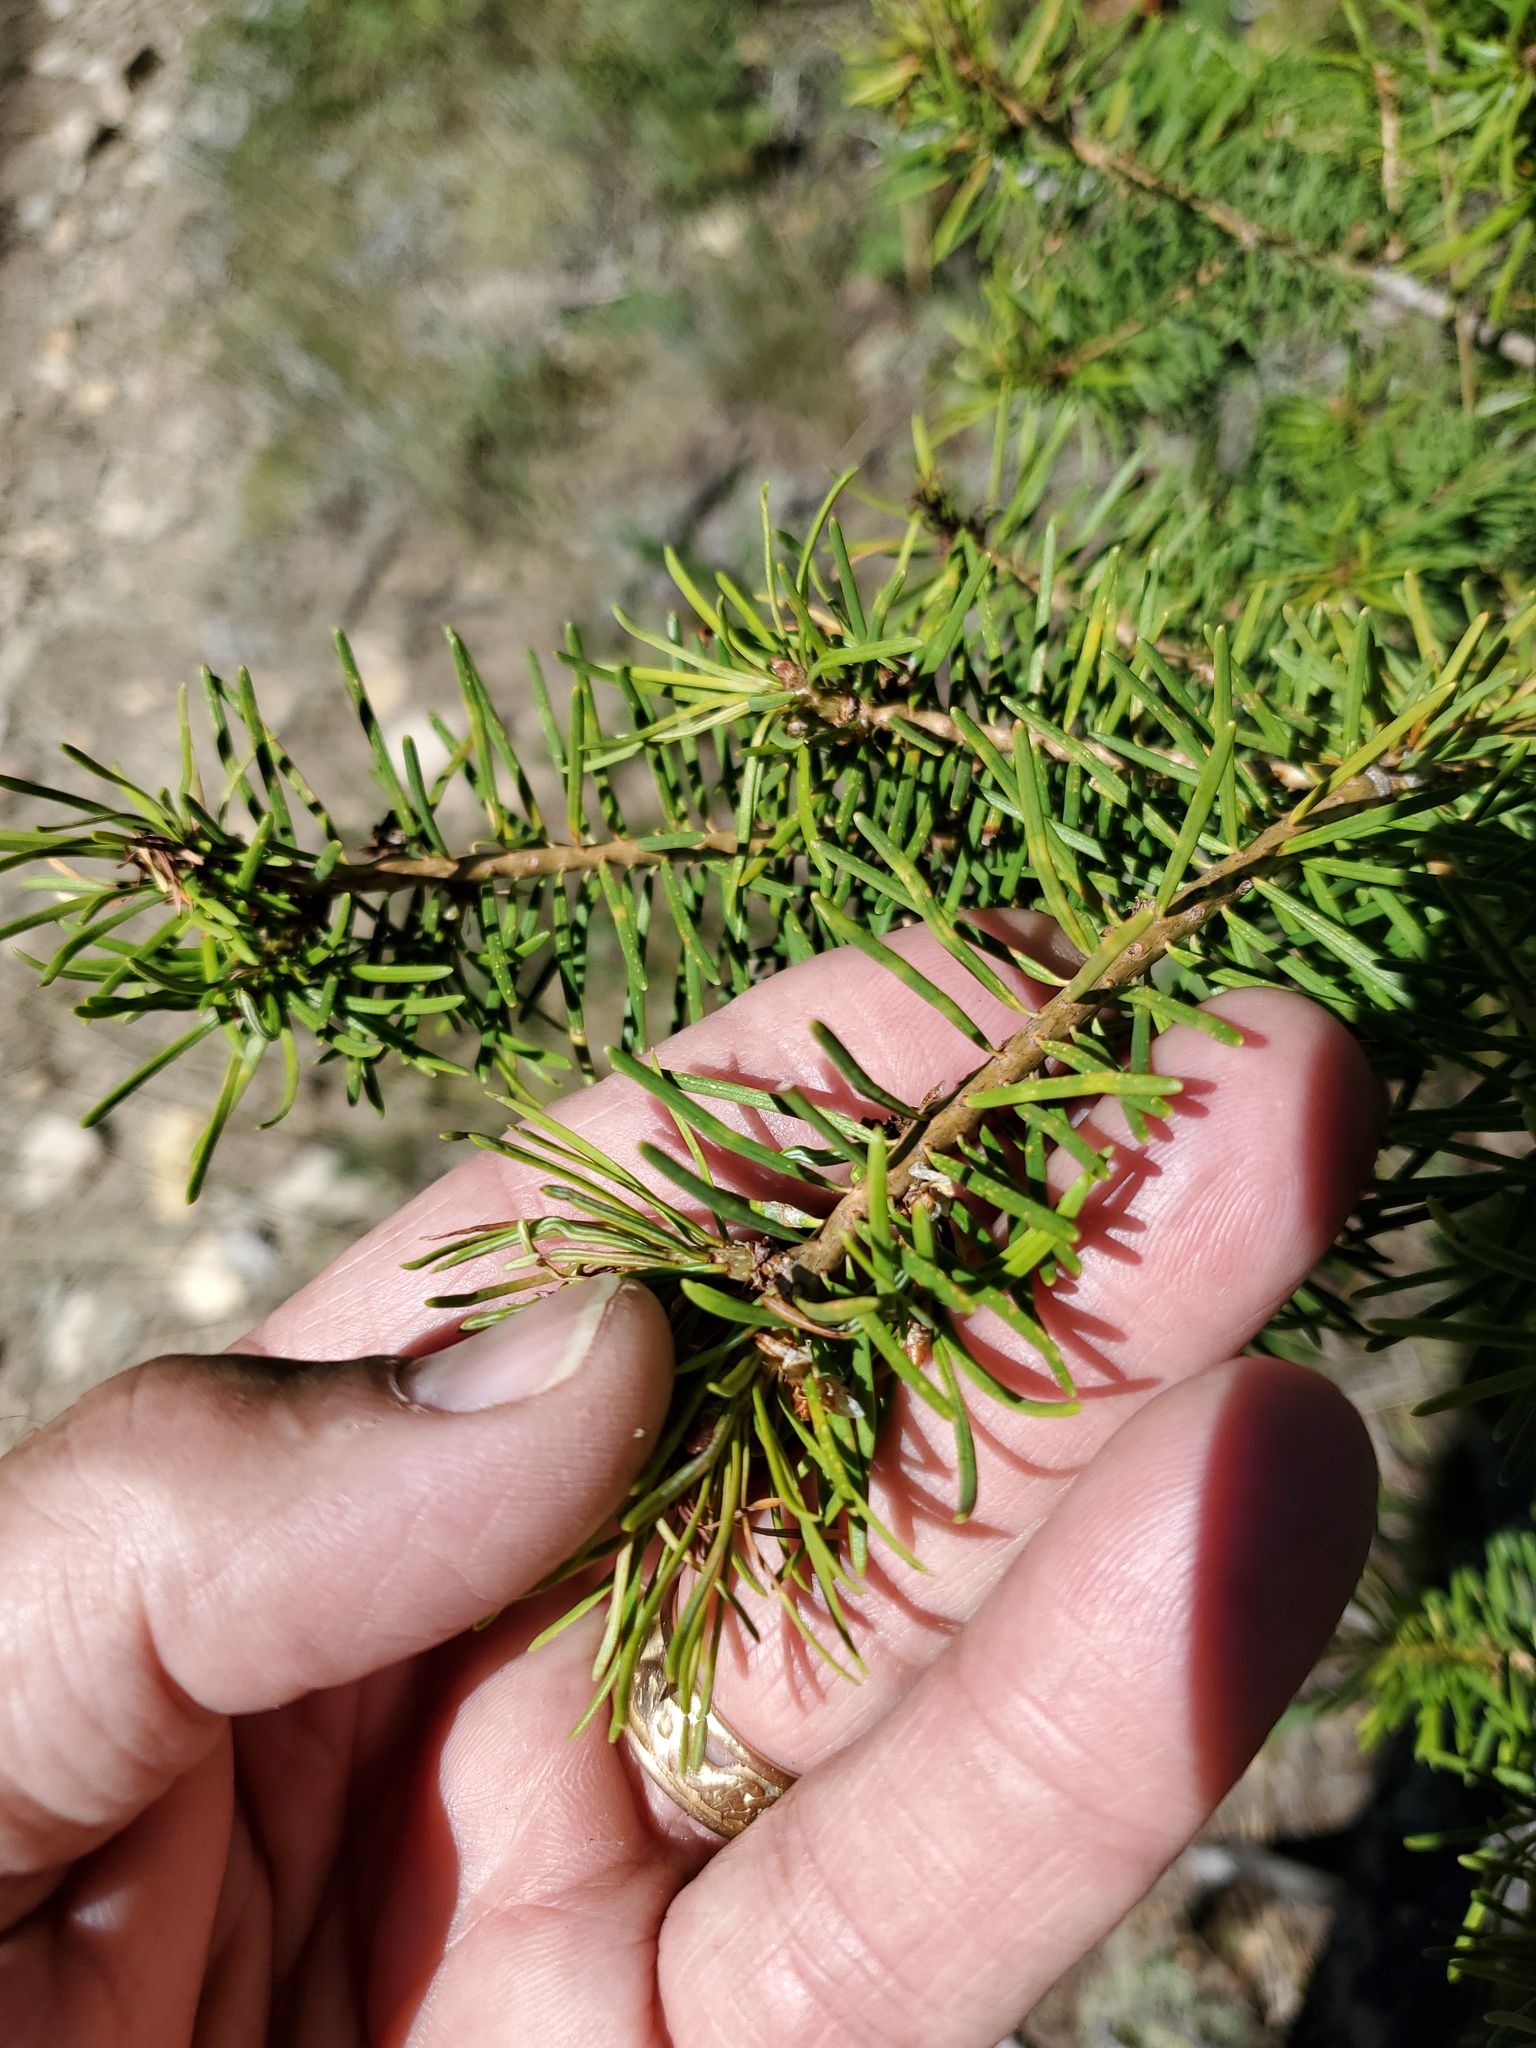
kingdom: Plantae
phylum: Tracheophyta
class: Pinopsida
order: Pinales
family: Pinaceae
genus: Pseudotsuga
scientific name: Pseudotsuga menziesii
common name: Douglas fir
